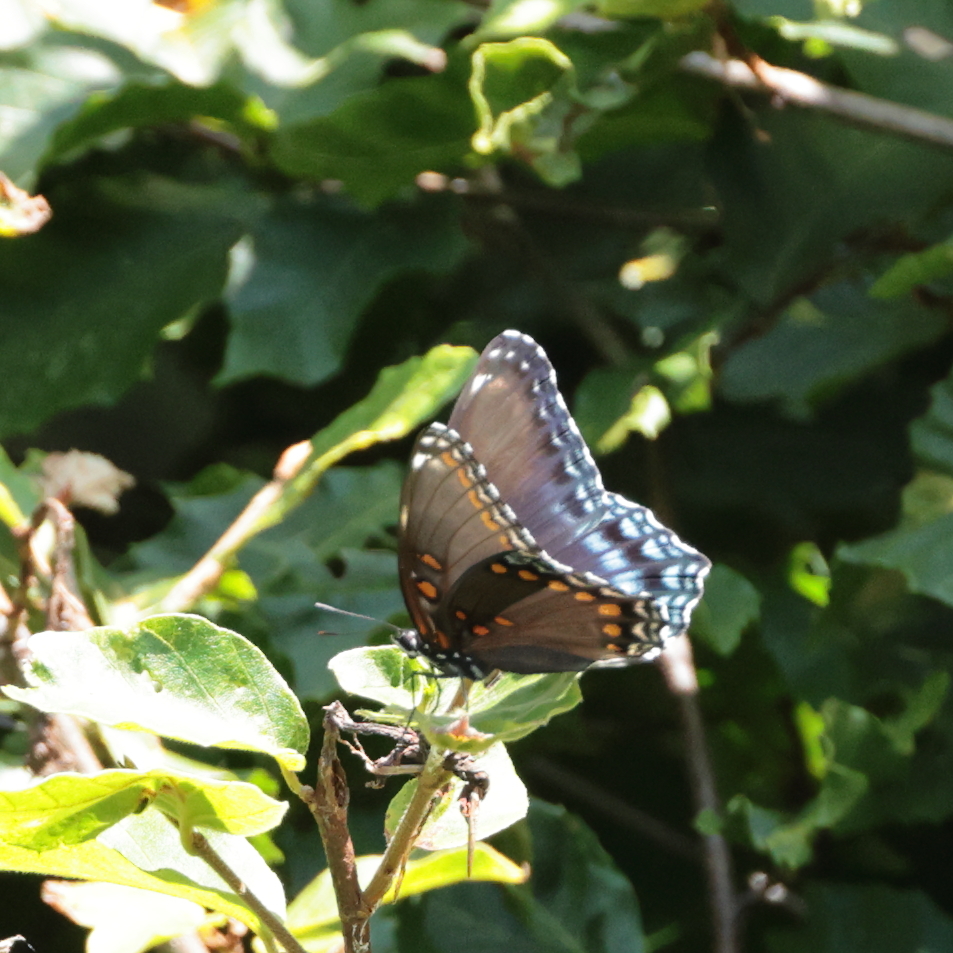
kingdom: Animalia
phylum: Arthropoda
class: Insecta
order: Lepidoptera
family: Nymphalidae
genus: Limenitis
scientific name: Limenitis arthemis
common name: Red-spotted admiral
